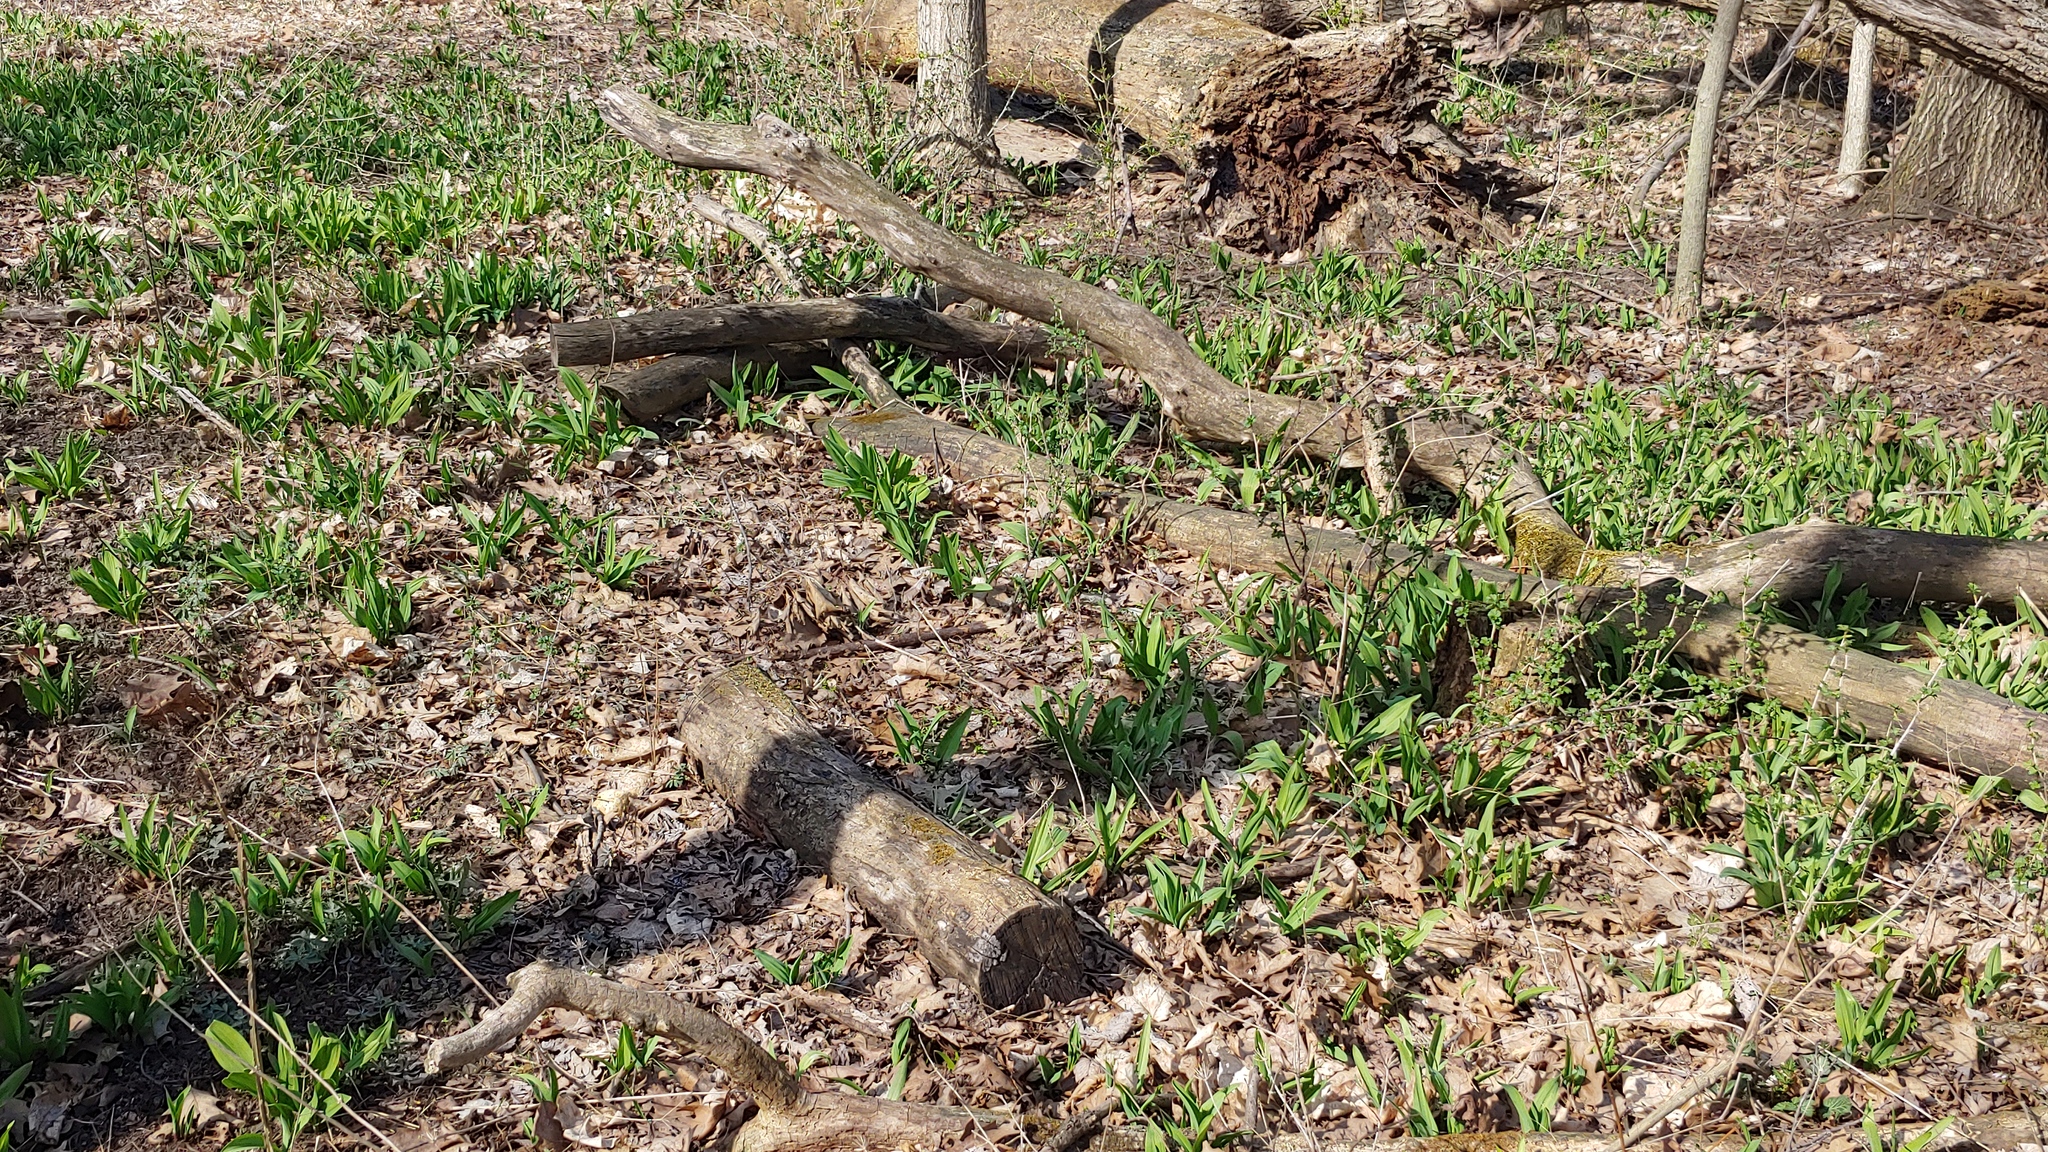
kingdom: Plantae
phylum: Tracheophyta
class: Liliopsida
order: Asparagales
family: Amaryllidaceae
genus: Allium
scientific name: Allium tricoccum
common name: Ramp
